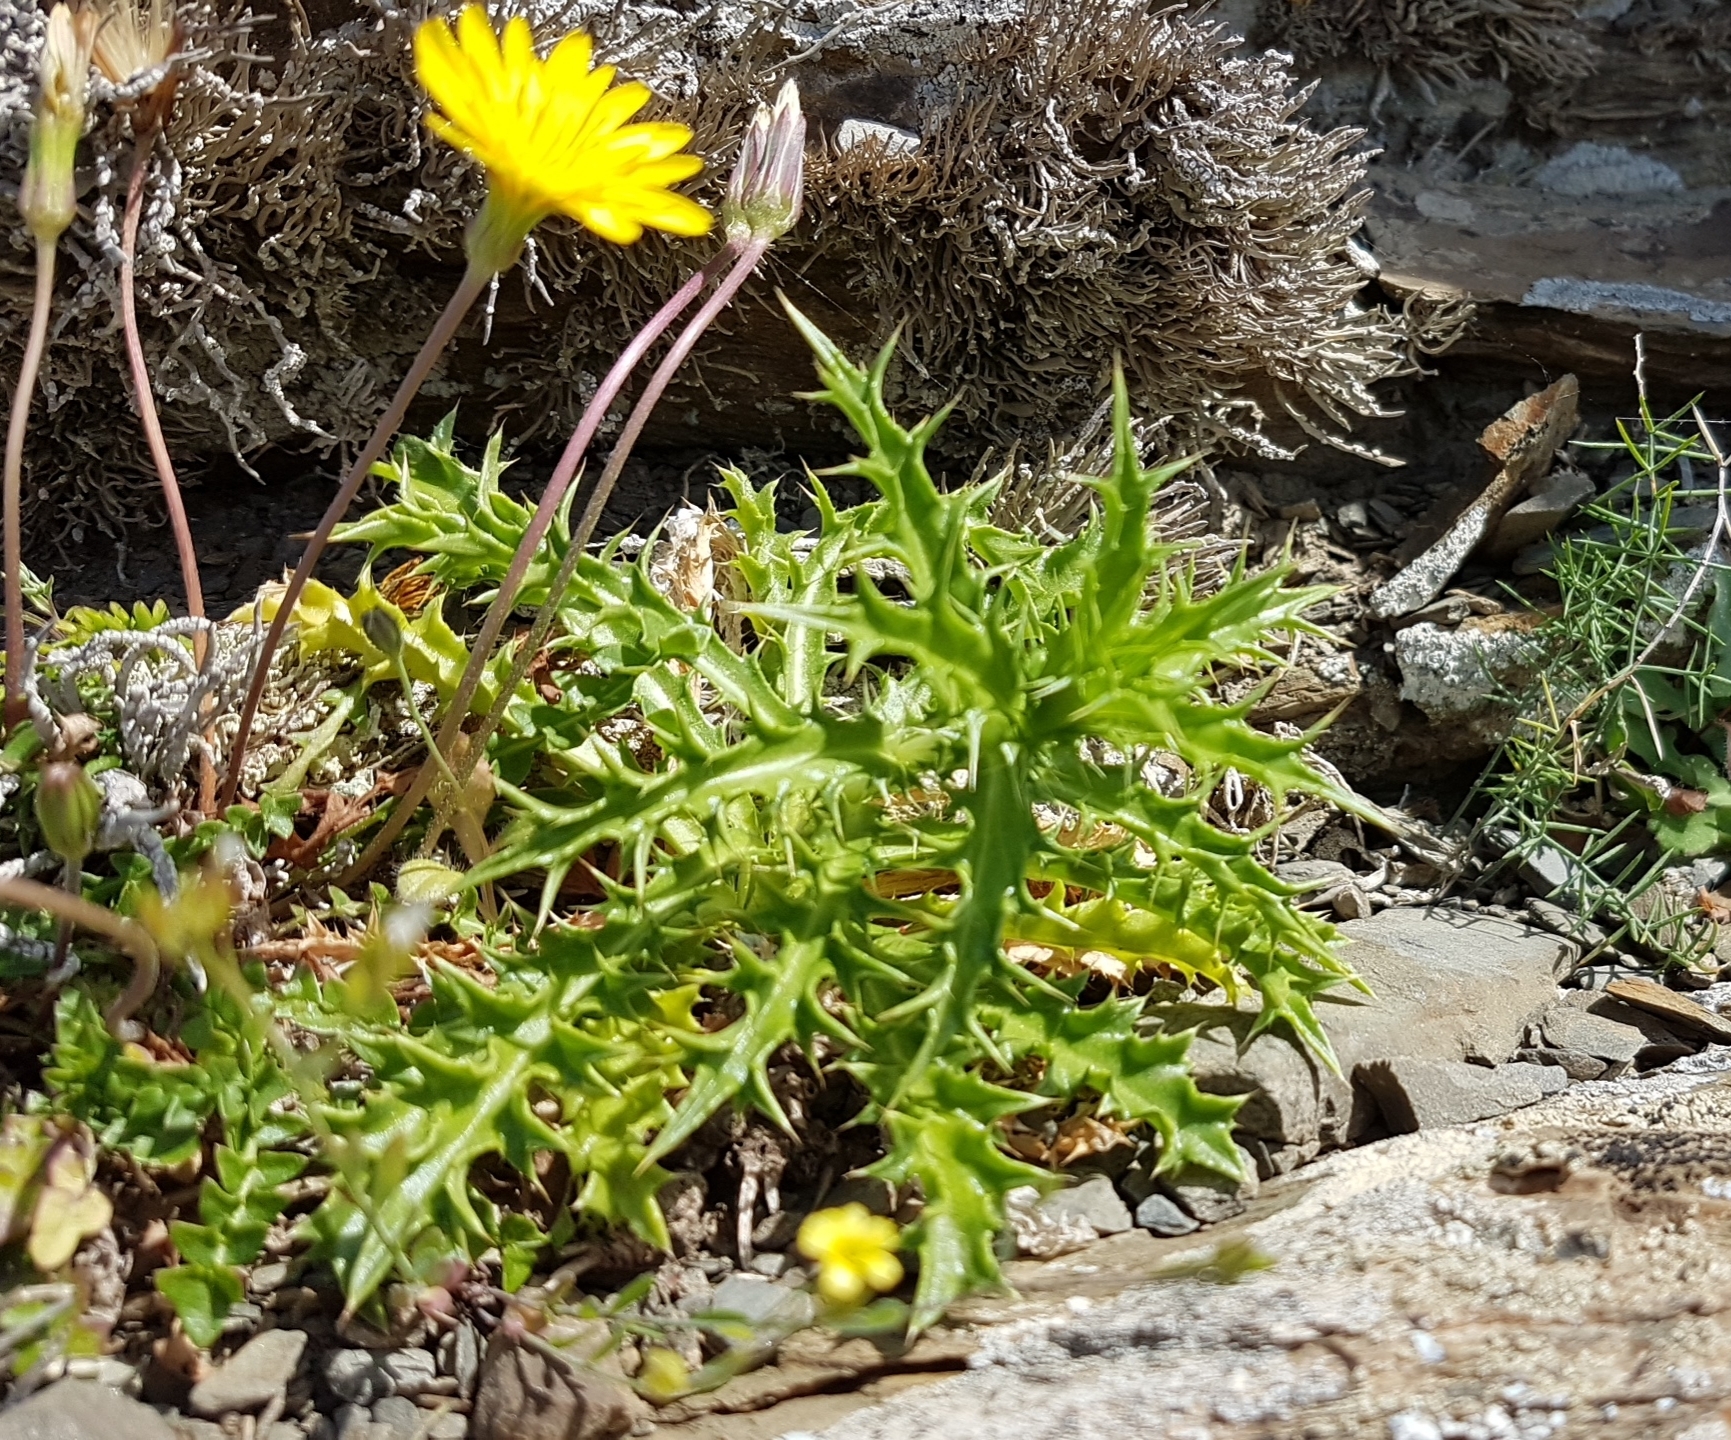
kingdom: Plantae
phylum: Tracheophyta
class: Magnoliopsida
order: Asterales
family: Asteraceae
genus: Carlina
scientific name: Carlina corymbosa
